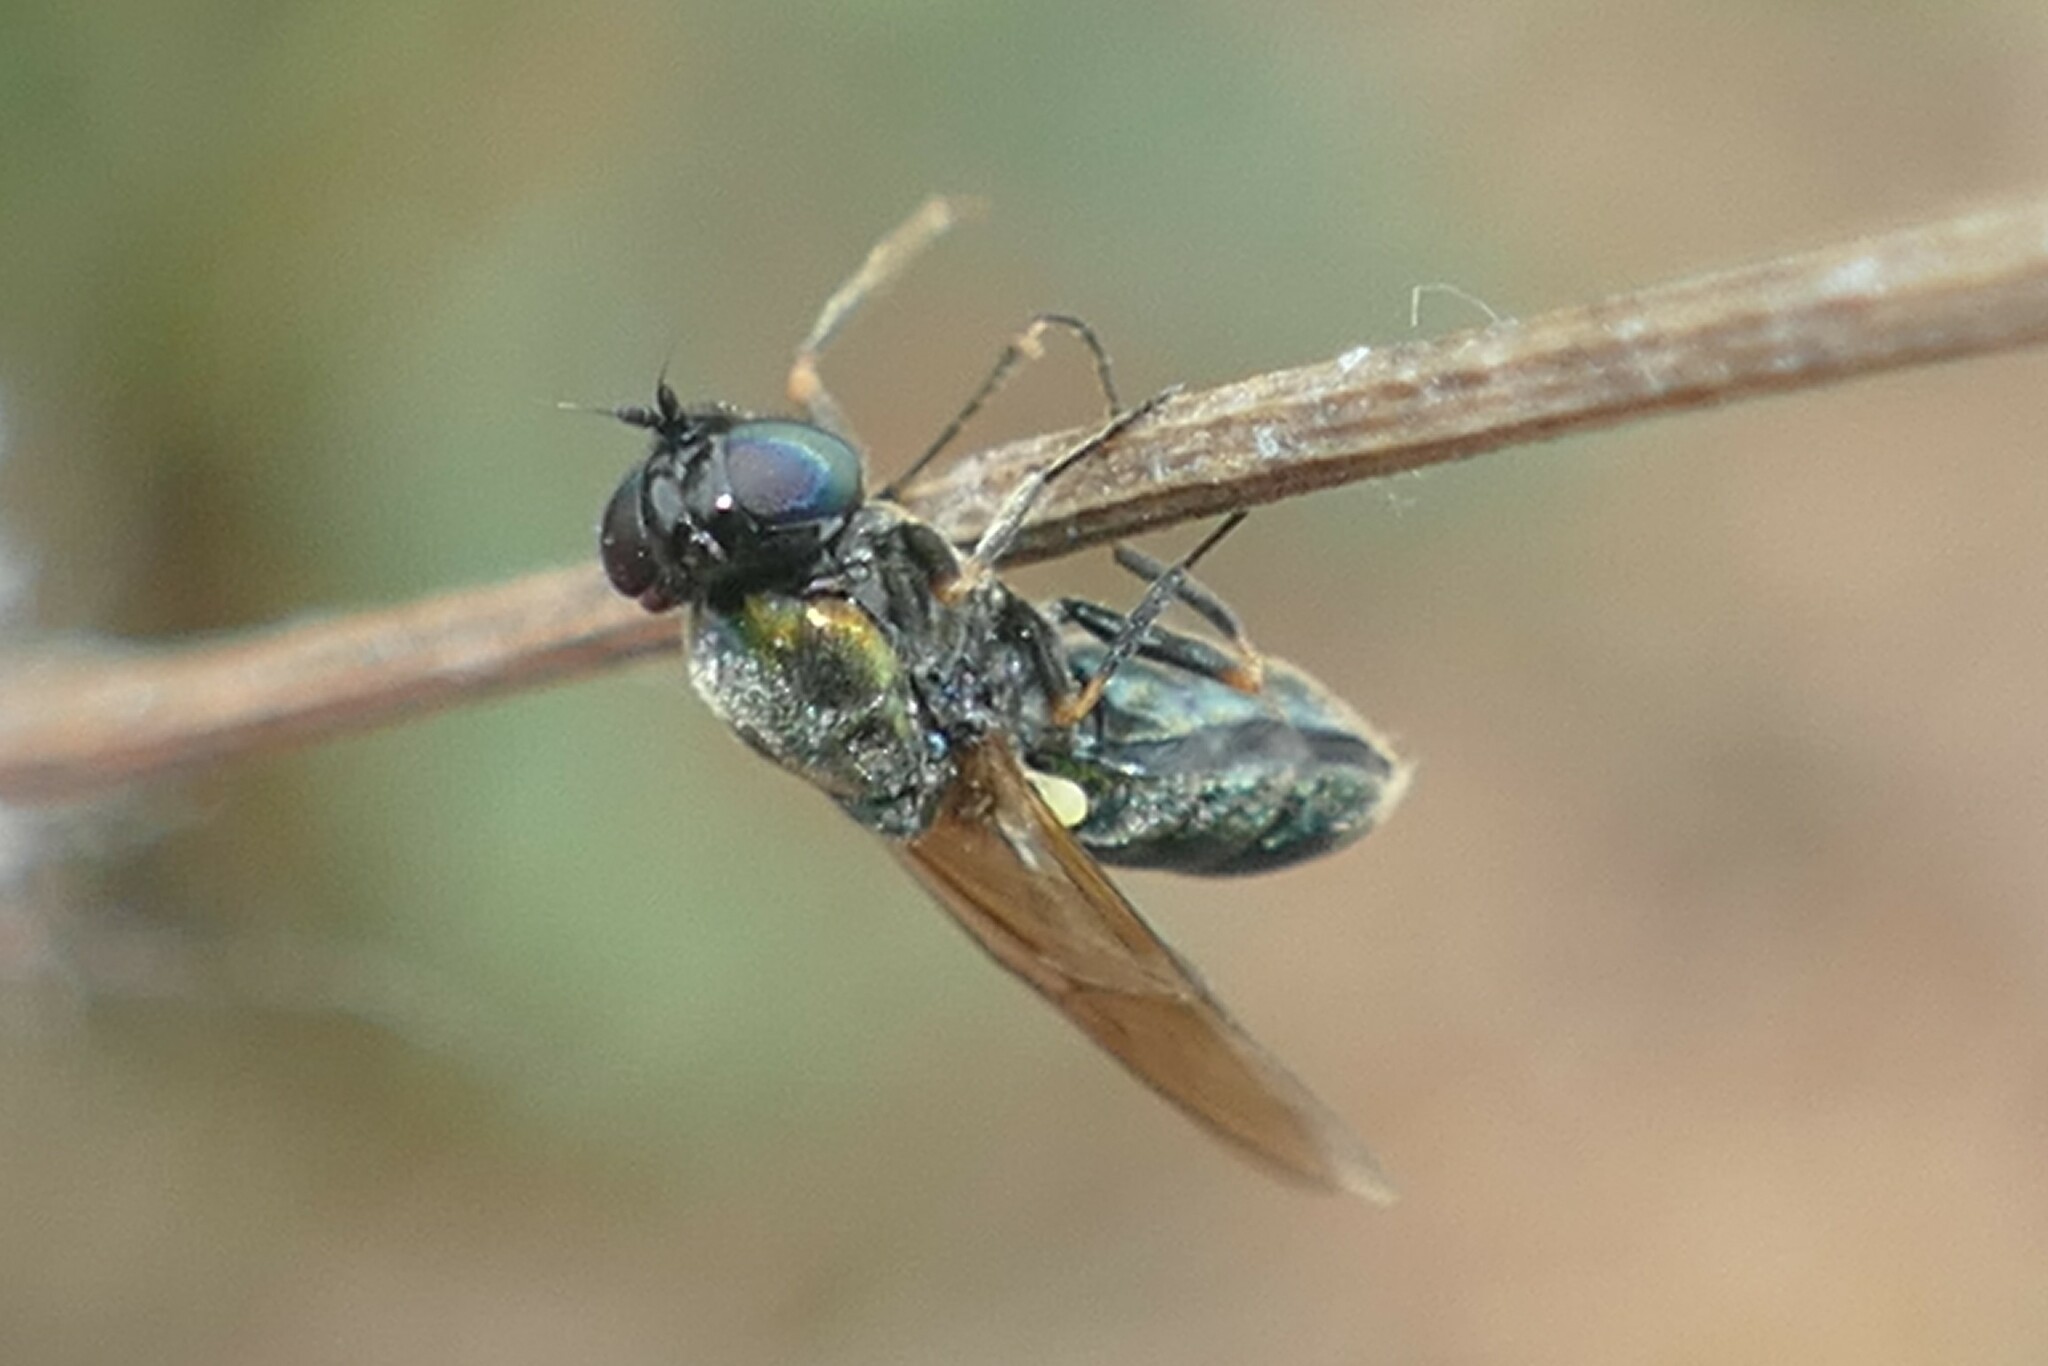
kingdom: Animalia
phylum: Arthropoda
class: Insecta
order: Diptera
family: Stratiomyidae
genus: Chloromyia
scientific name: Chloromyia formosa
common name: Soldier fly
